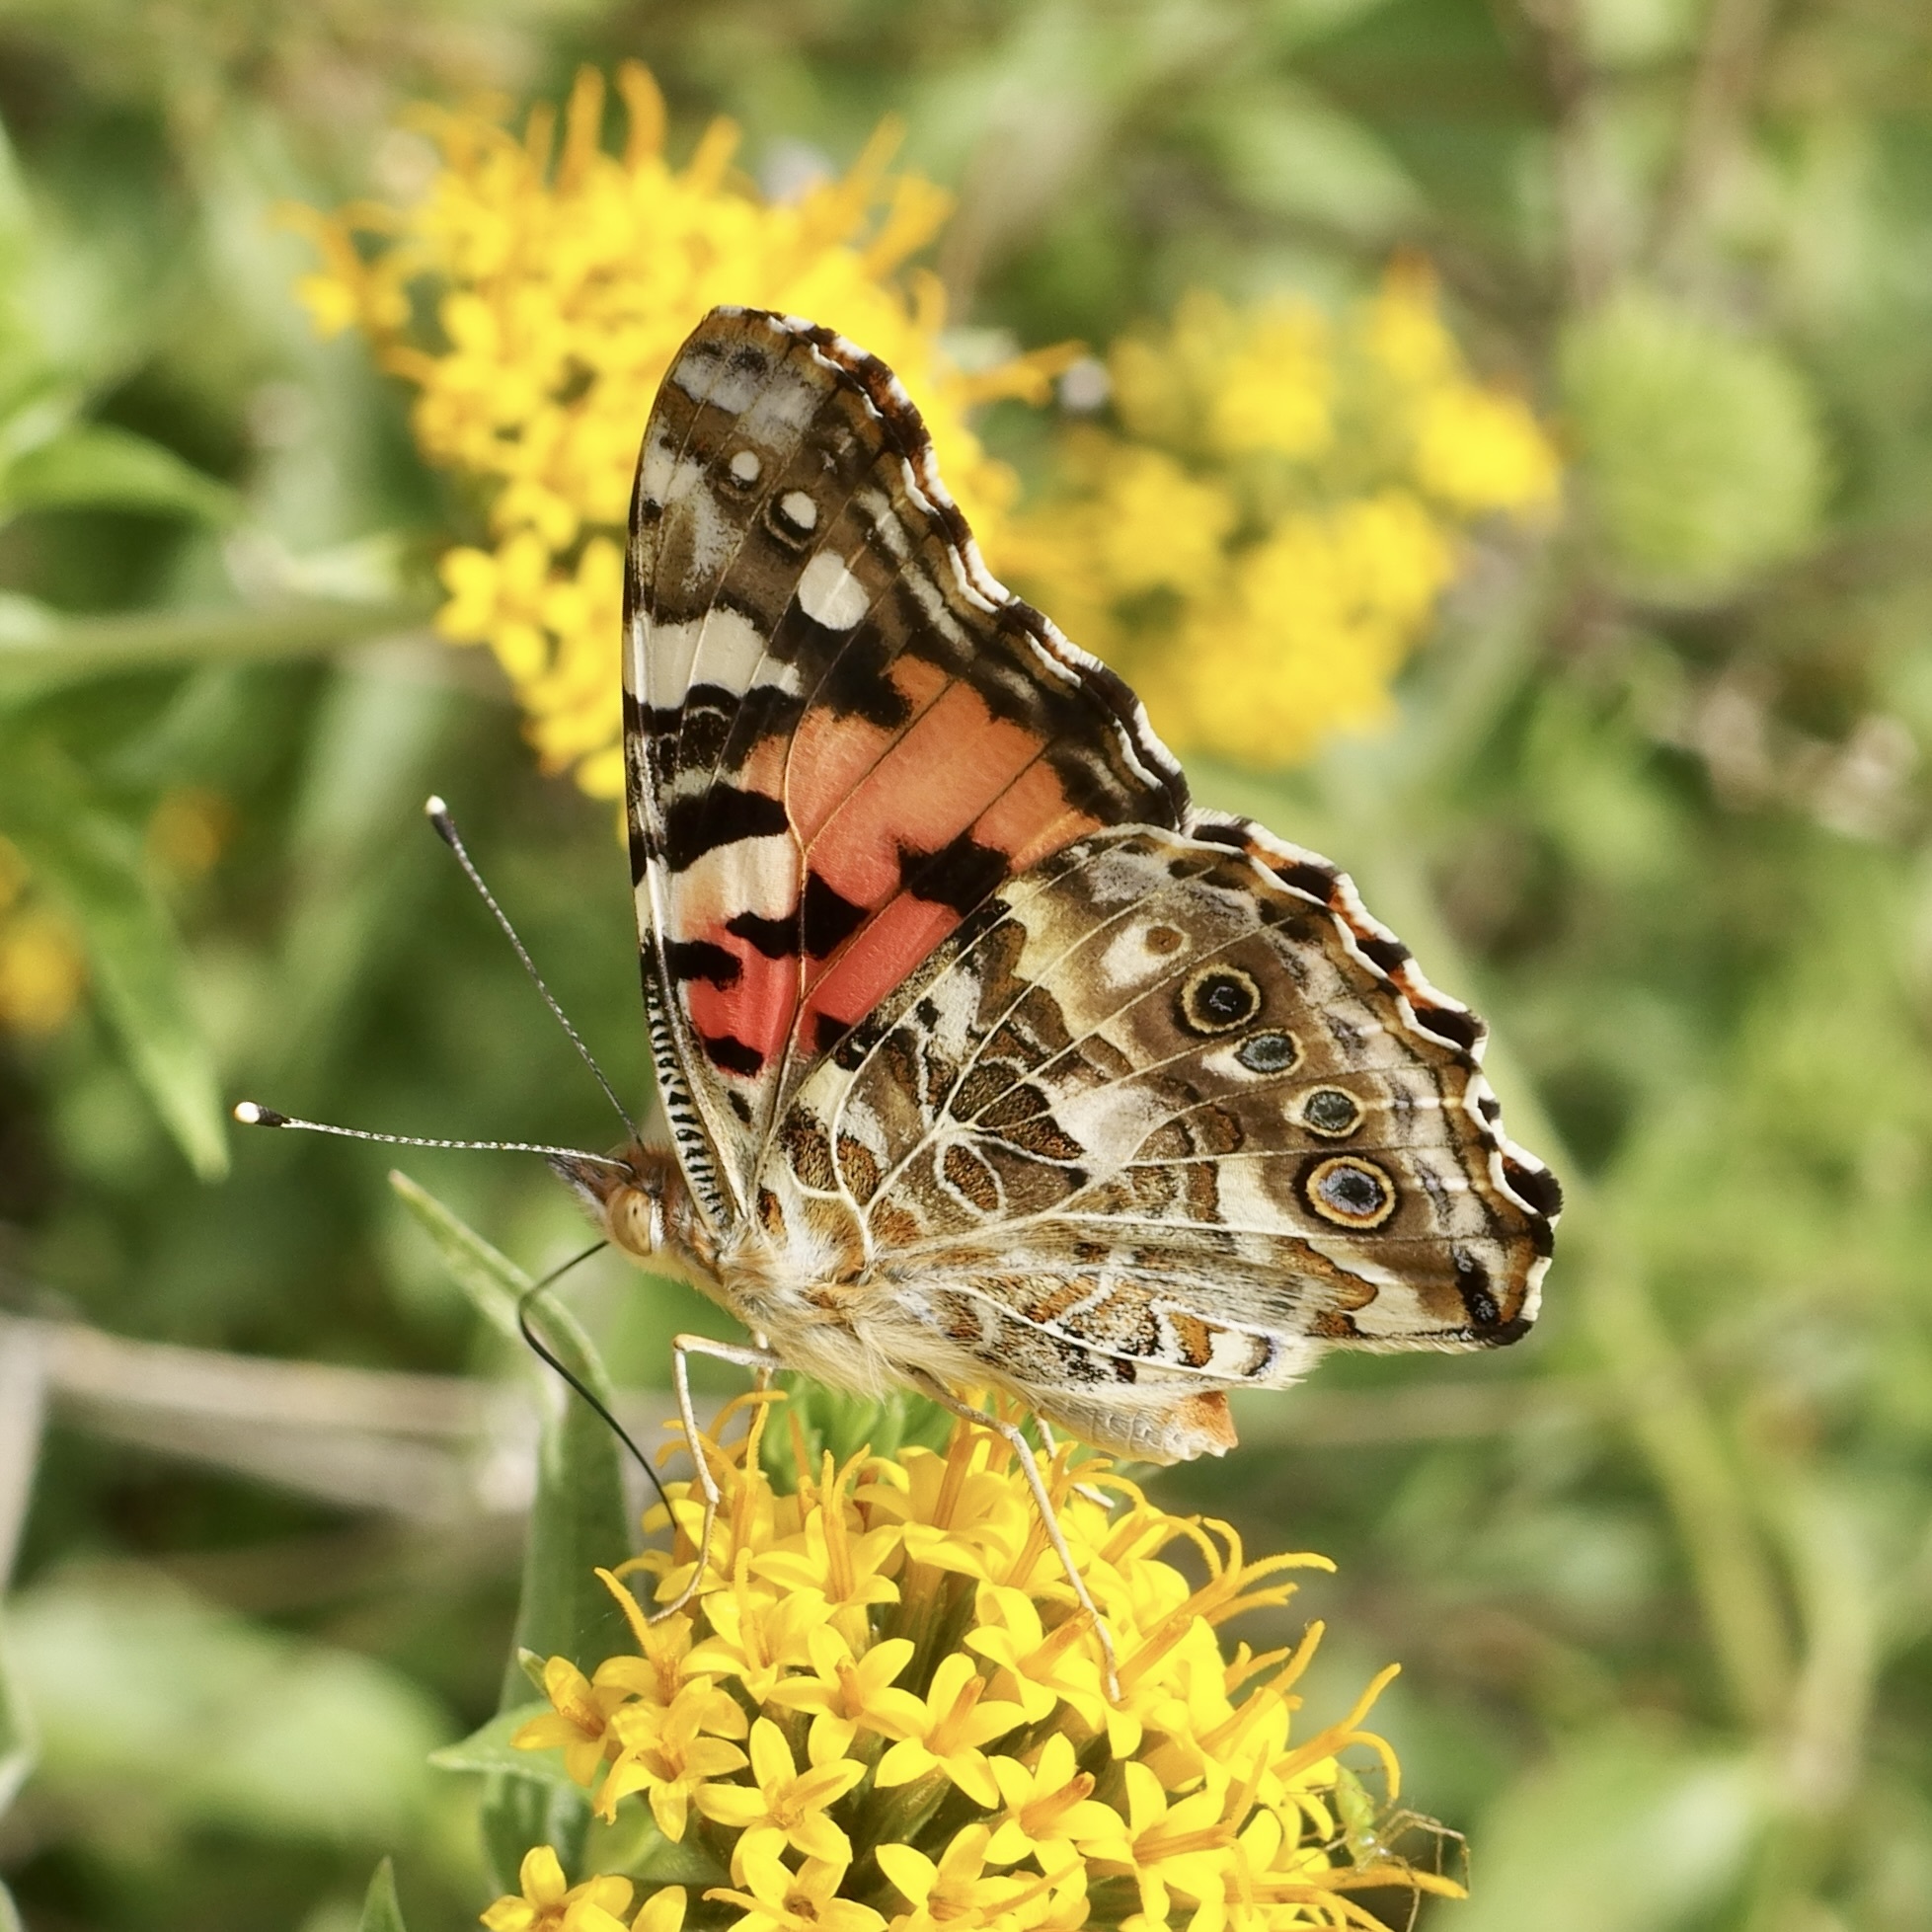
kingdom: Animalia
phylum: Arthropoda
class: Insecta
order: Lepidoptera
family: Nymphalidae
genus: Vanessa
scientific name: Vanessa cardui
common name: Painted lady
